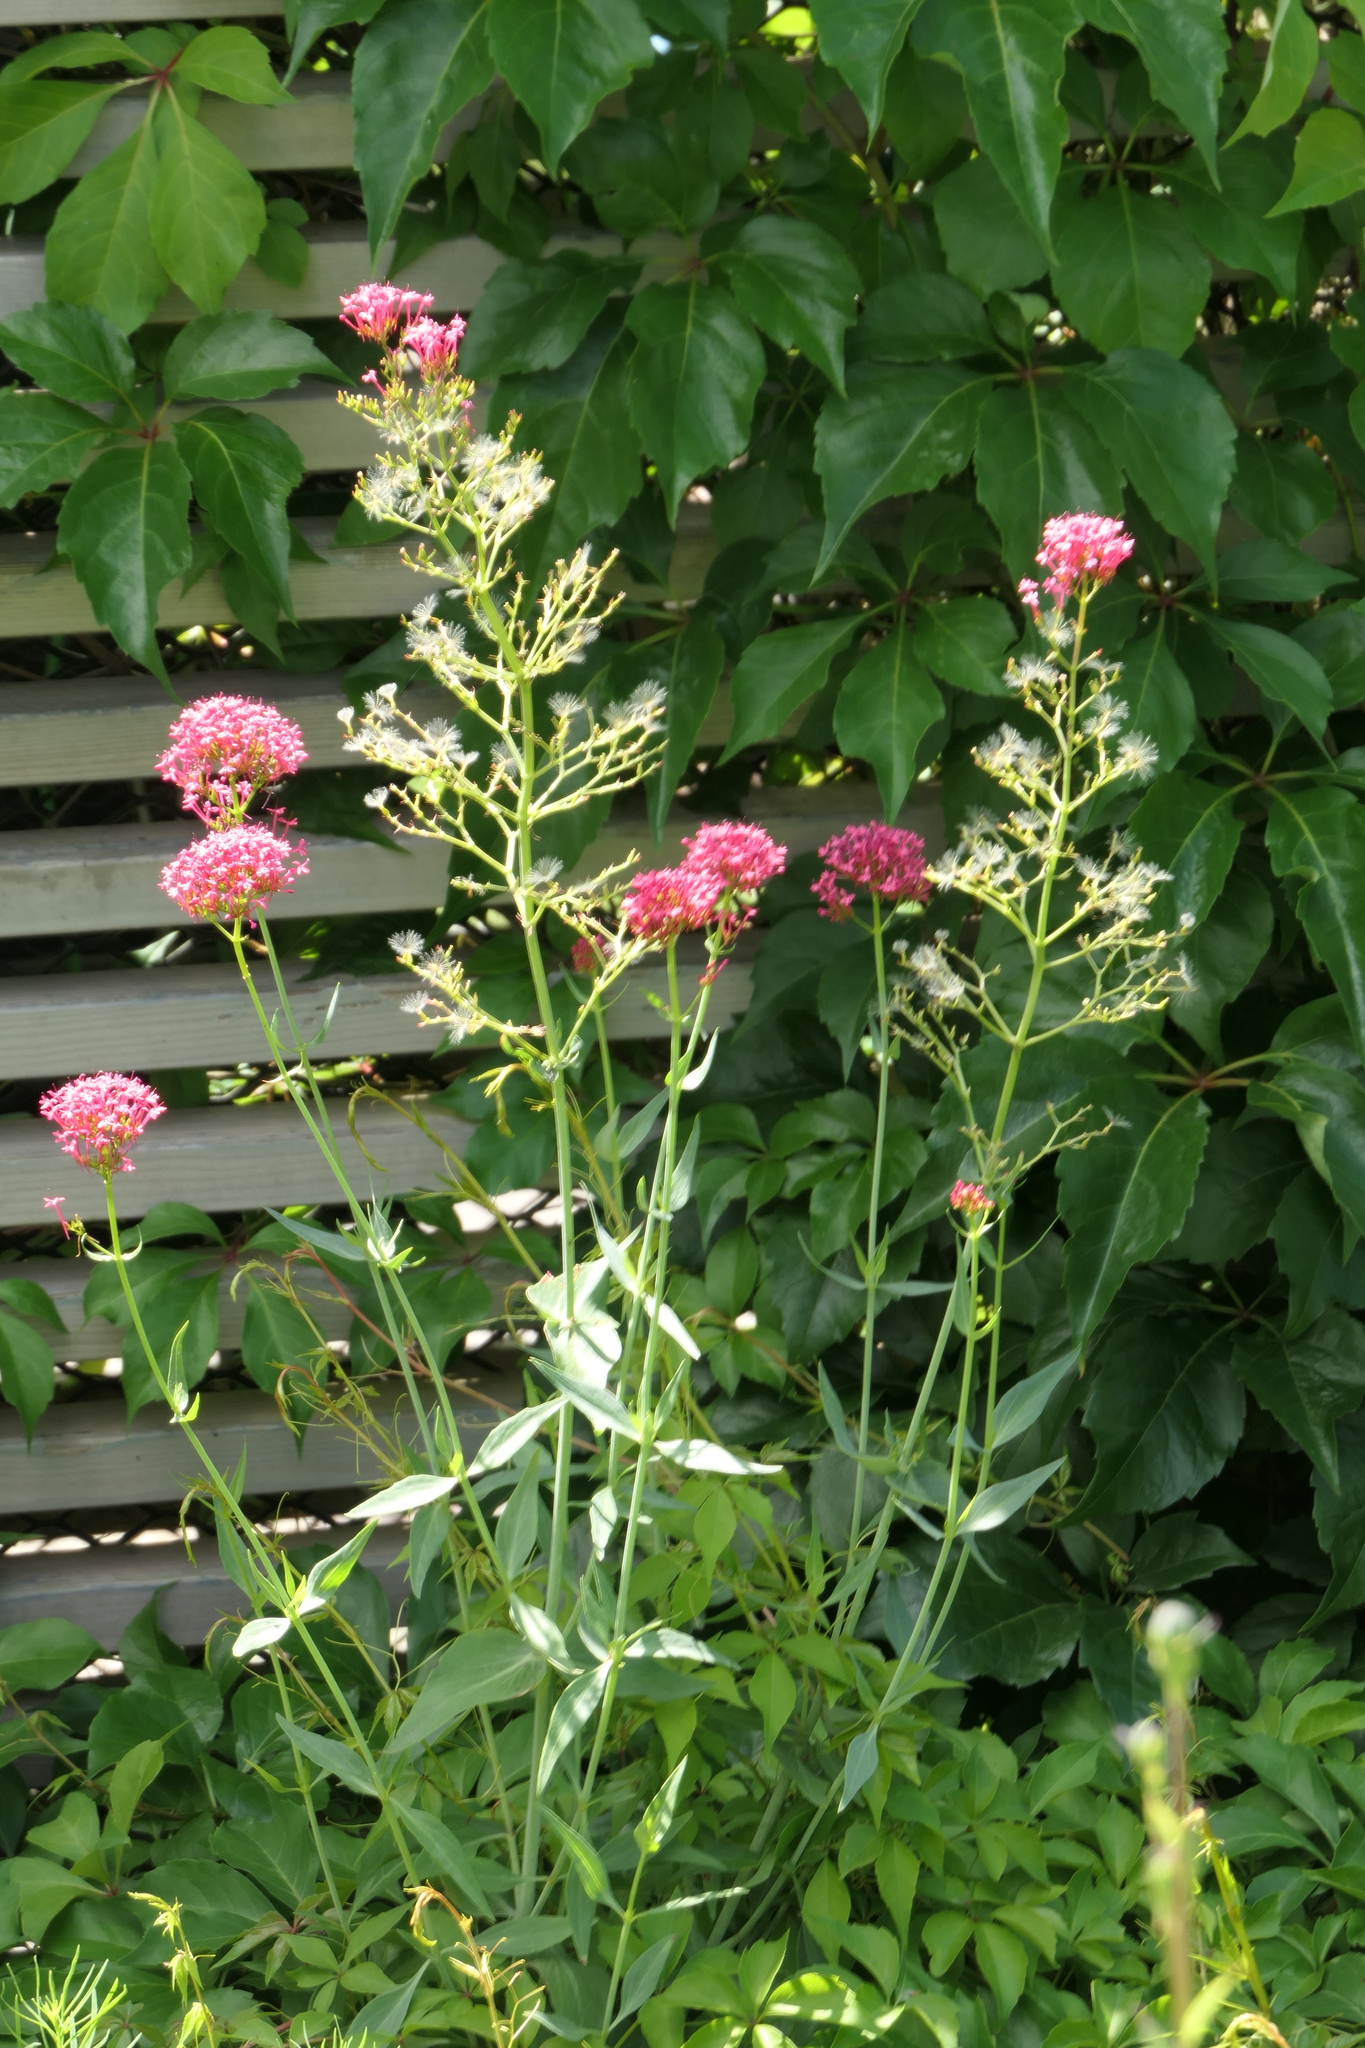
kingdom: Plantae
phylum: Tracheophyta
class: Magnoliopsida
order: Dipsacales
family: Caprifoliaceae
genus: Centranthus
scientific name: Centranthus ruber
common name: Red valerian
